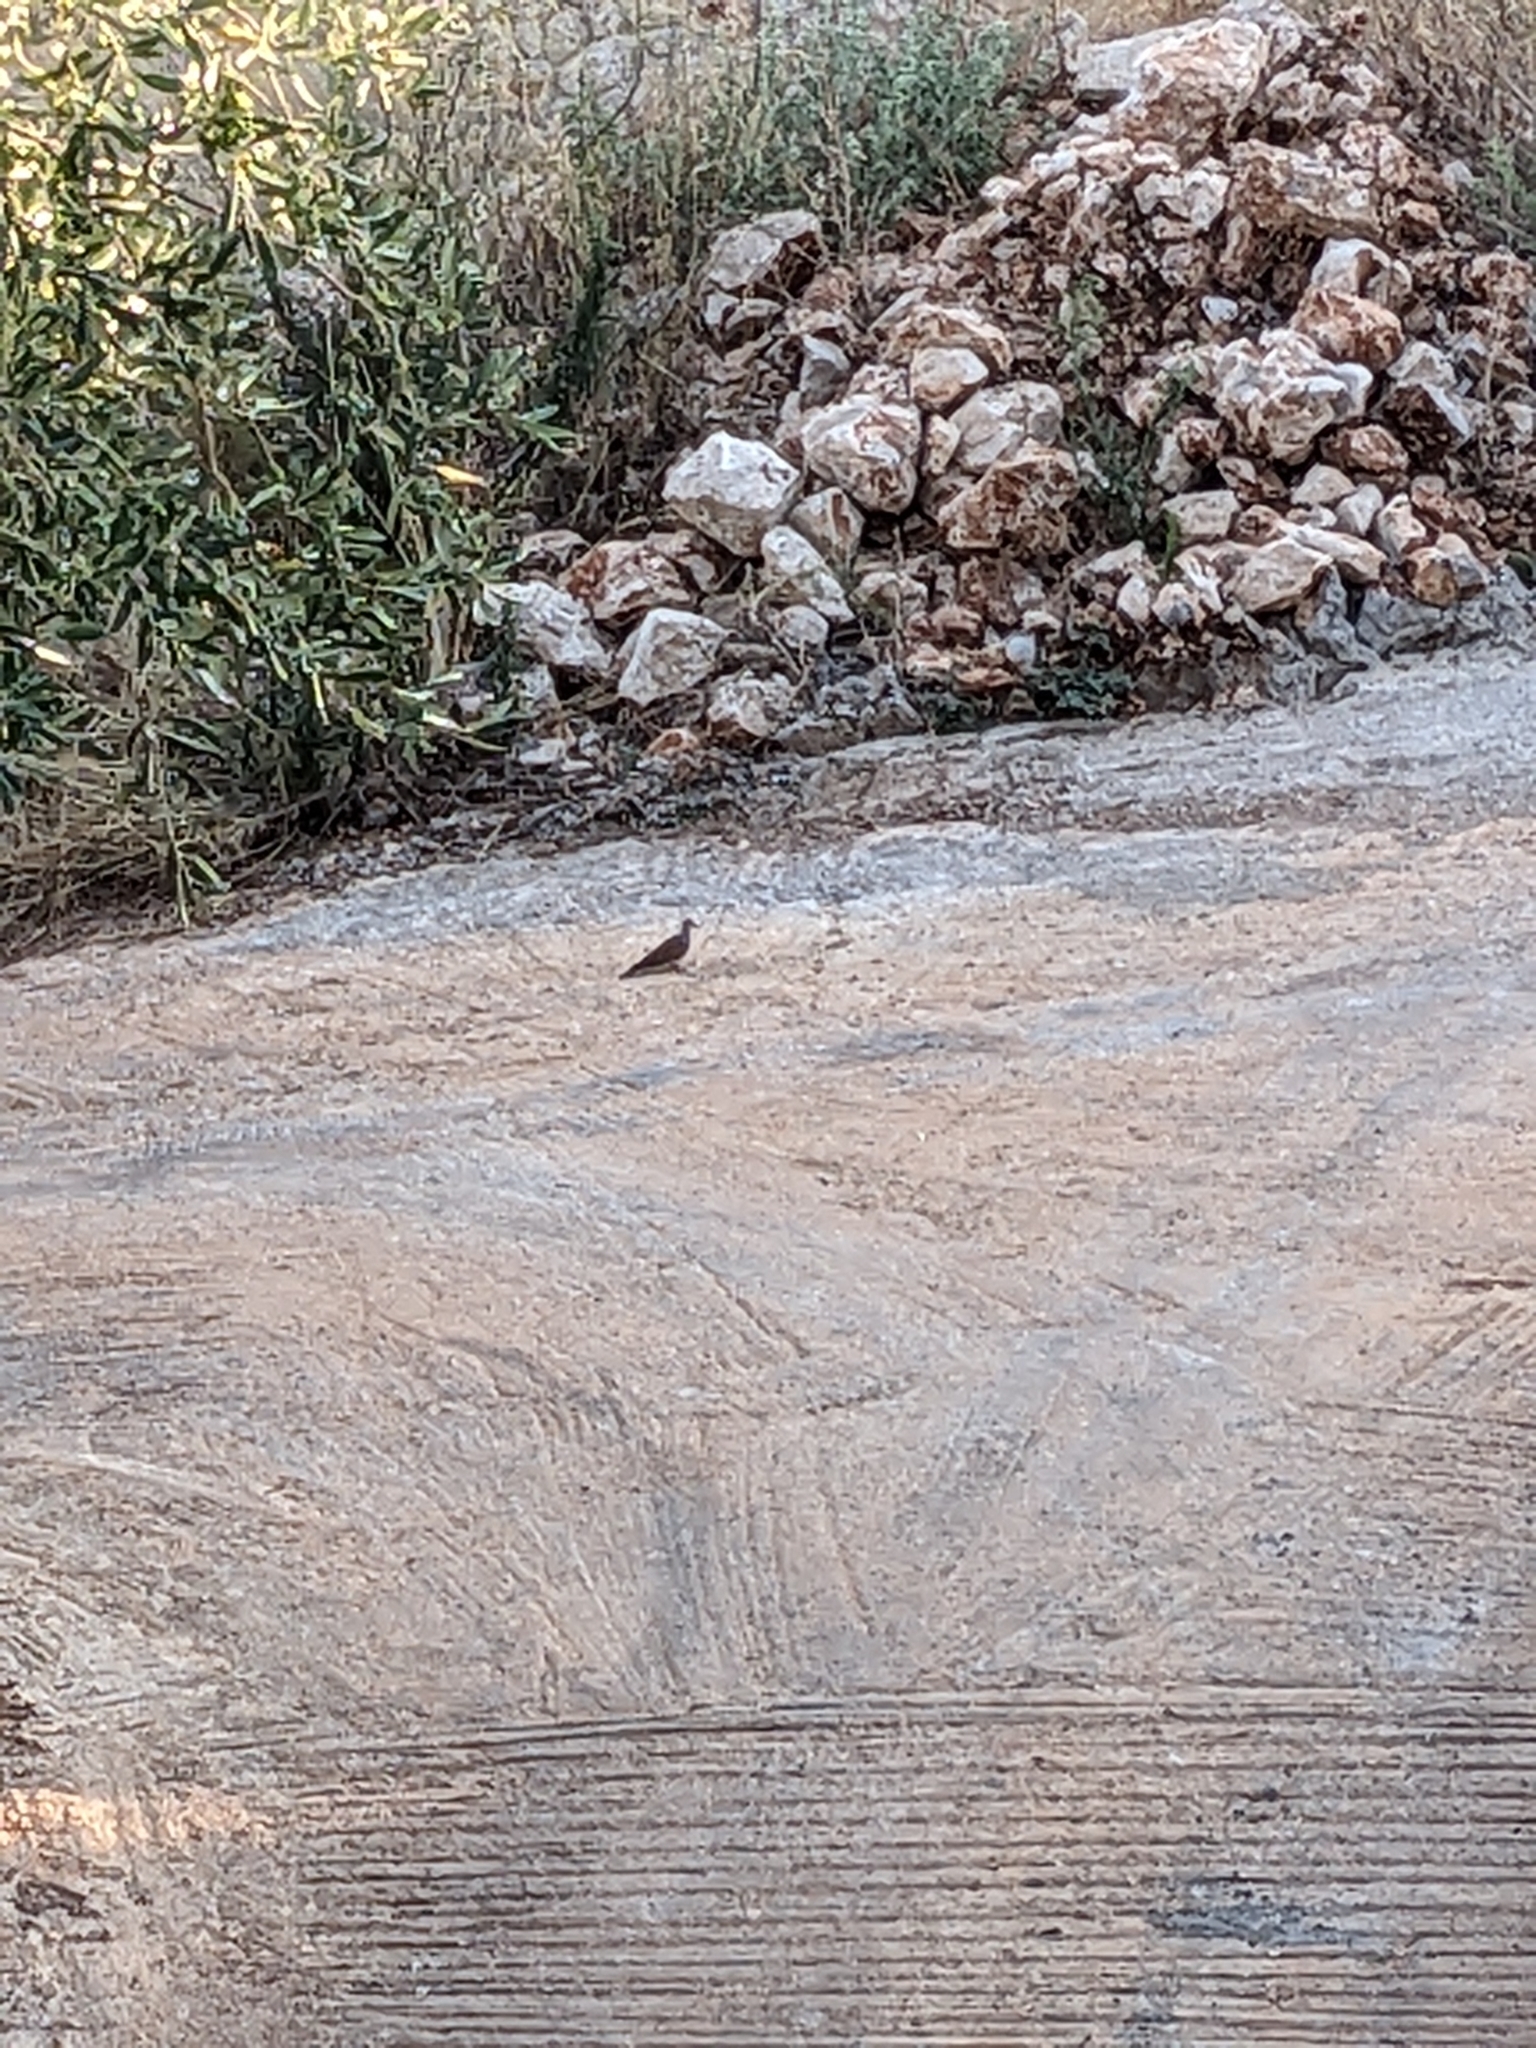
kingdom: Animalia
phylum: Chordata
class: Aves
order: Columbiformes
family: Columbidae
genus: Streptopelia
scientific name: Streptopelia turtur
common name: European turtle dove
